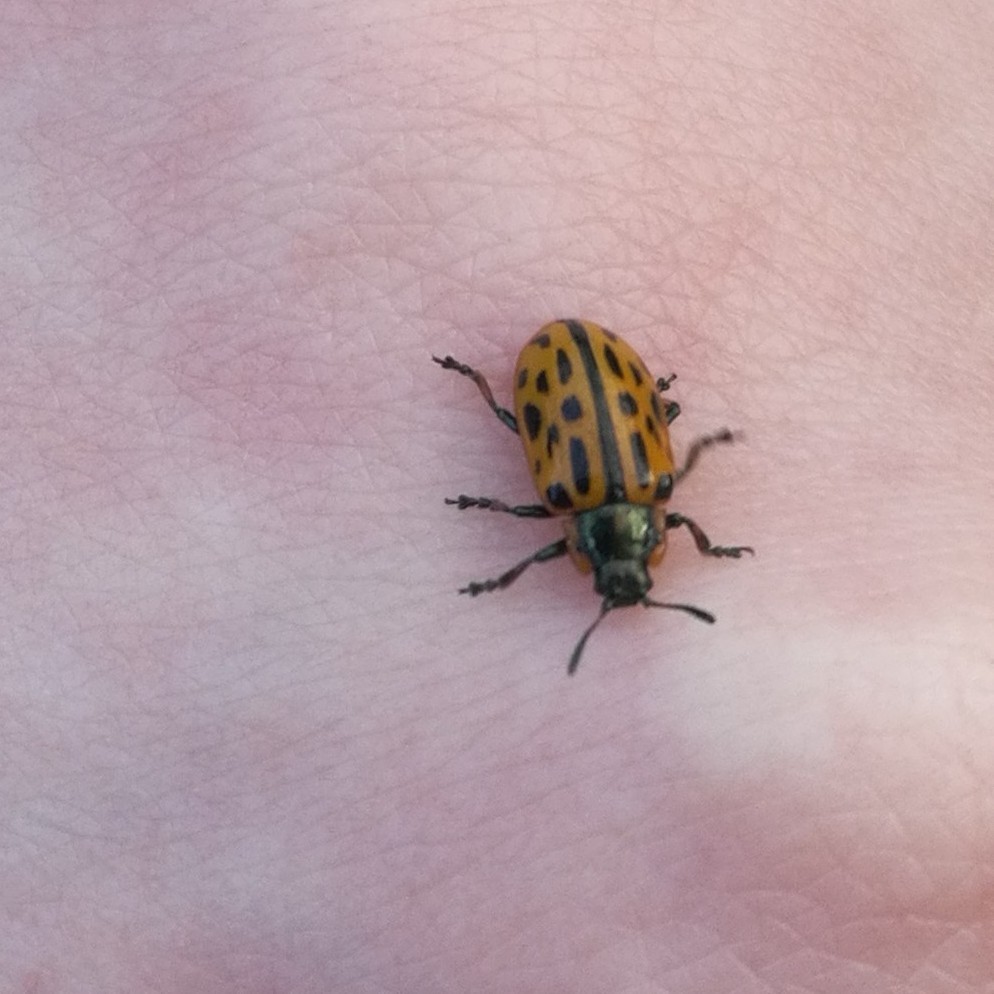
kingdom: Animalia
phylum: Arthropoda
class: Insecta
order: Coleoptera
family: Chrysomelidae
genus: Chrysomela
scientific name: Chrysomela vigintipunctata
